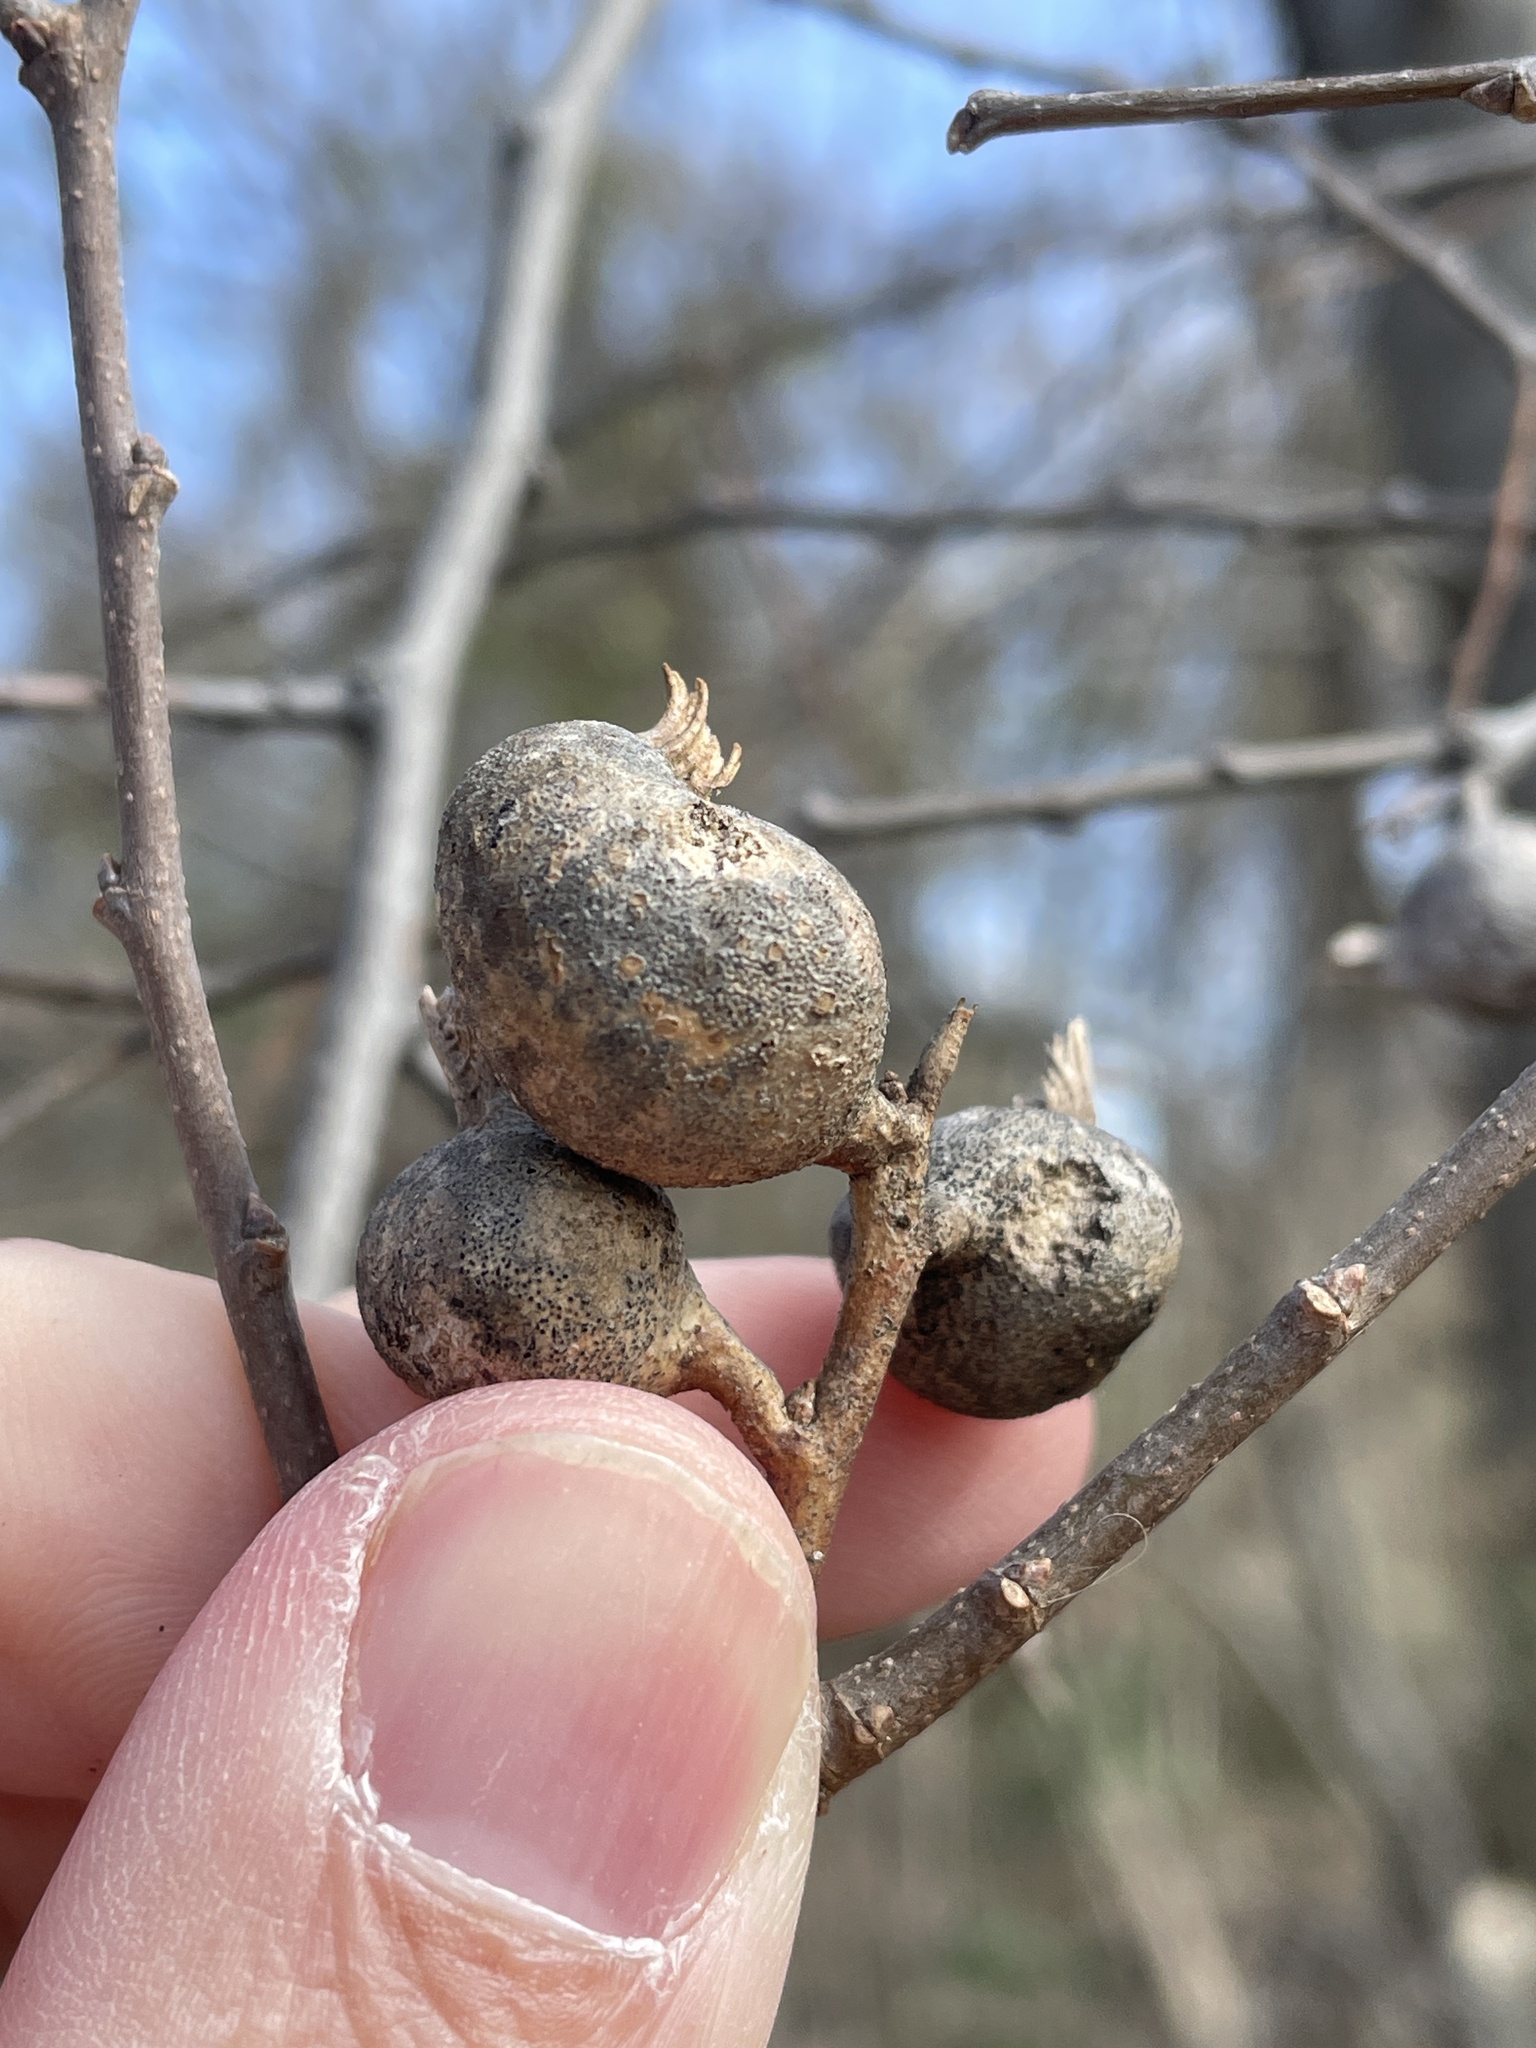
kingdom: Animalia
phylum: Arthropoda
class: Insecta
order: Hemiptera
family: Aphalaridae
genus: Pachypsylla
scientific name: Pachypsylla venusta
